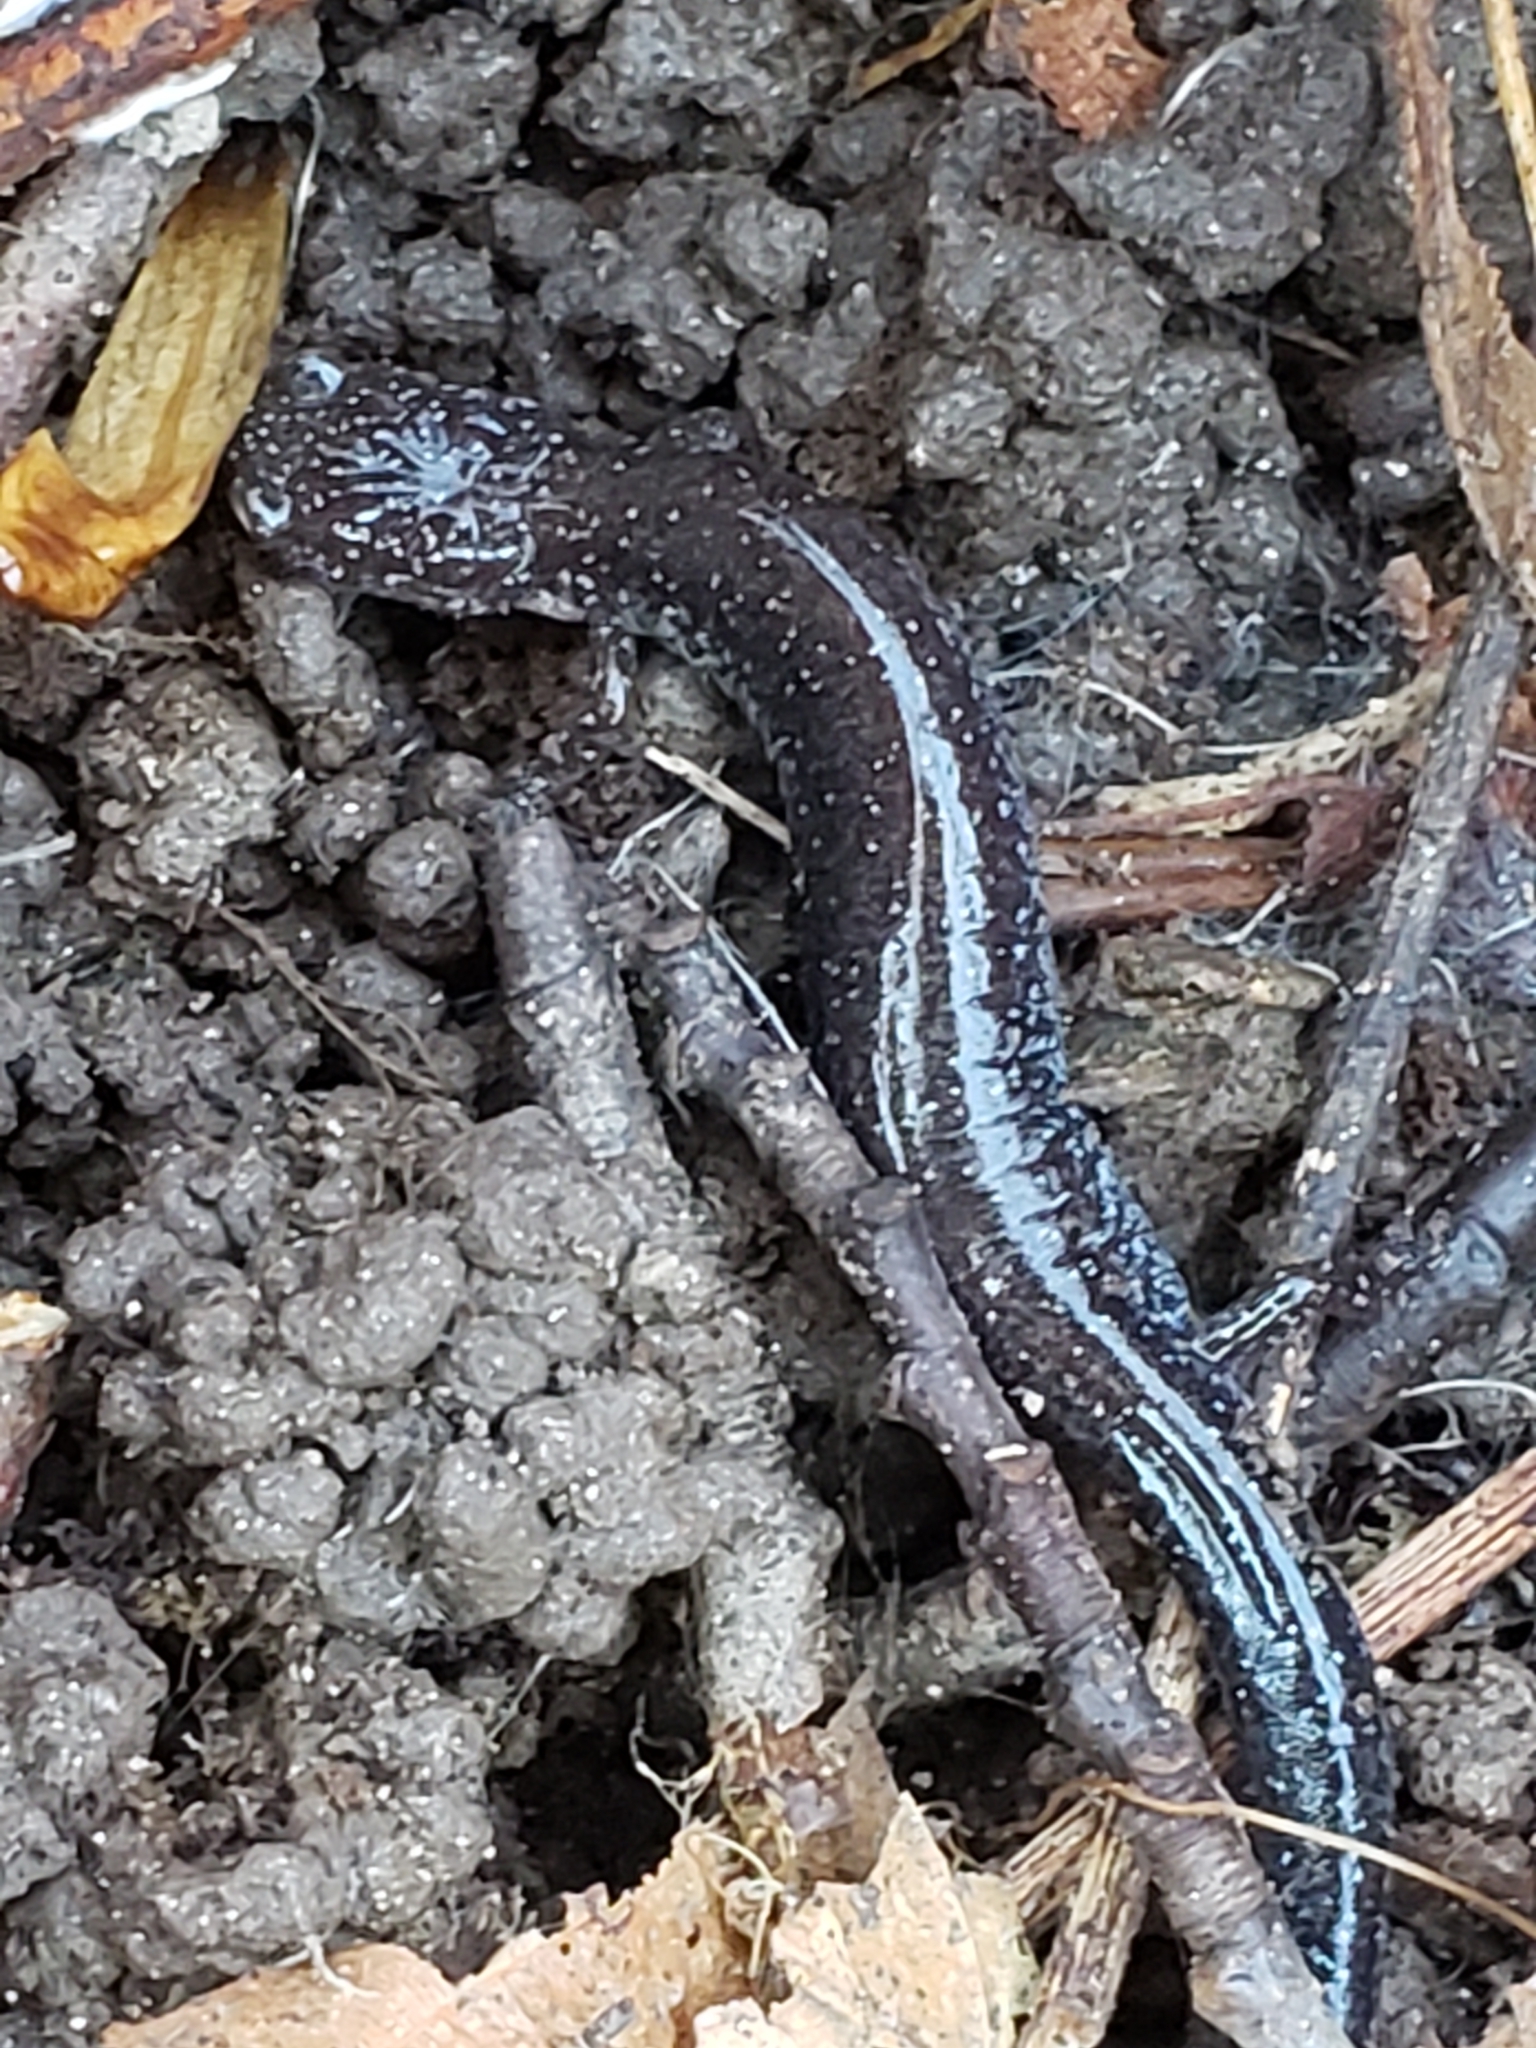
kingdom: Animalia
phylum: Chordata
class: Amphibia
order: Caudata
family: Plethodontidae
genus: Plethodon
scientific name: Plethodon cinereus
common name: Redback salamander
